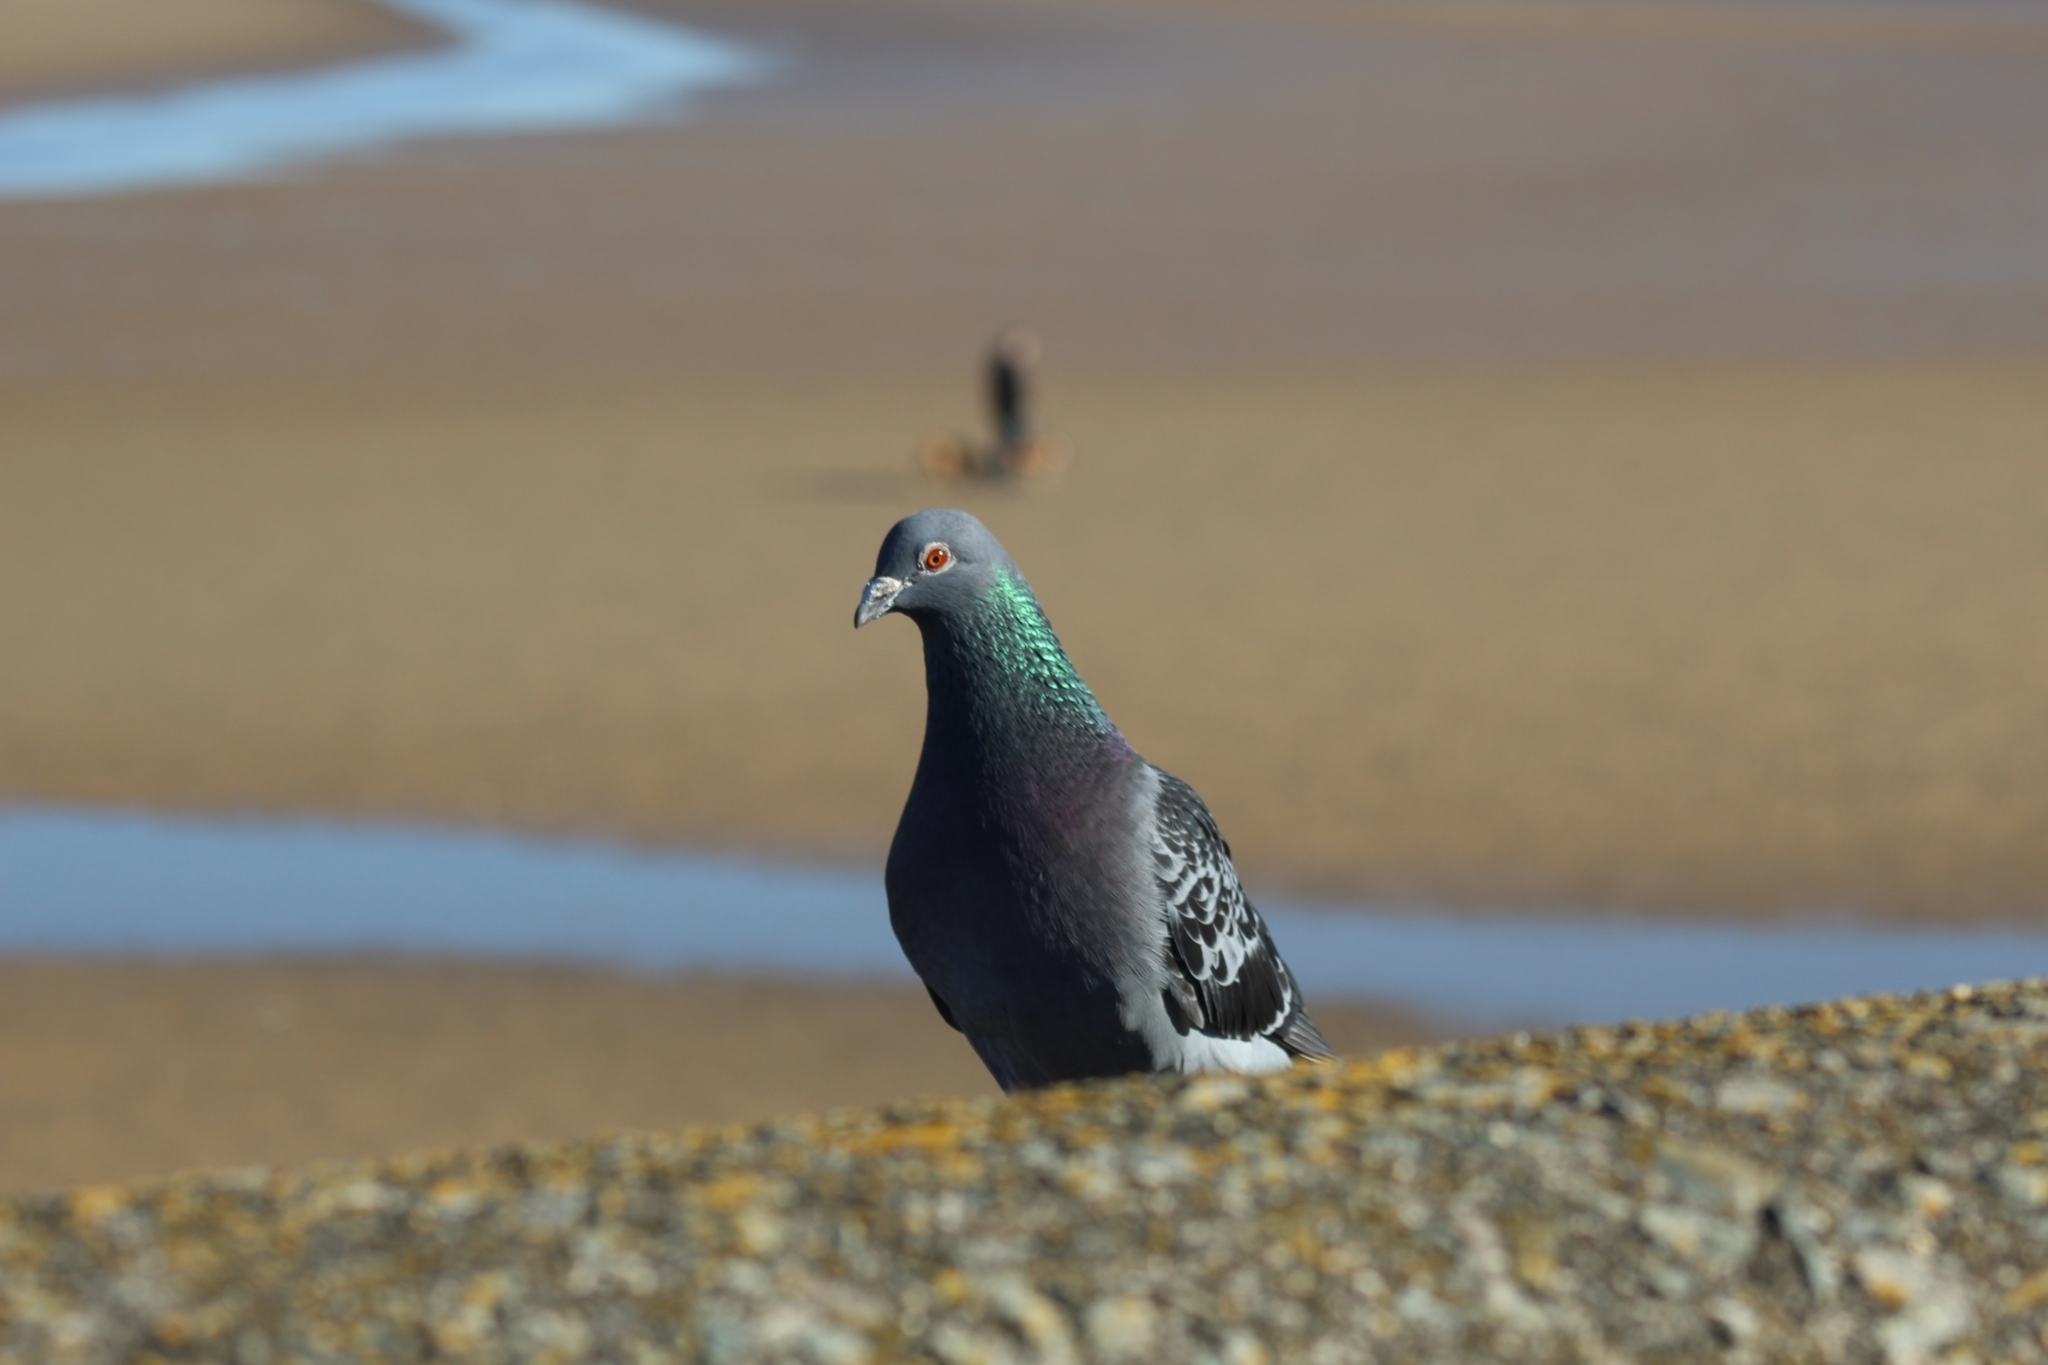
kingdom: Animalia
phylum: Chordata
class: Aves
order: Columbiformes
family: Columbidae
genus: Columba
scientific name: Columba livia
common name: Rock pigeon
